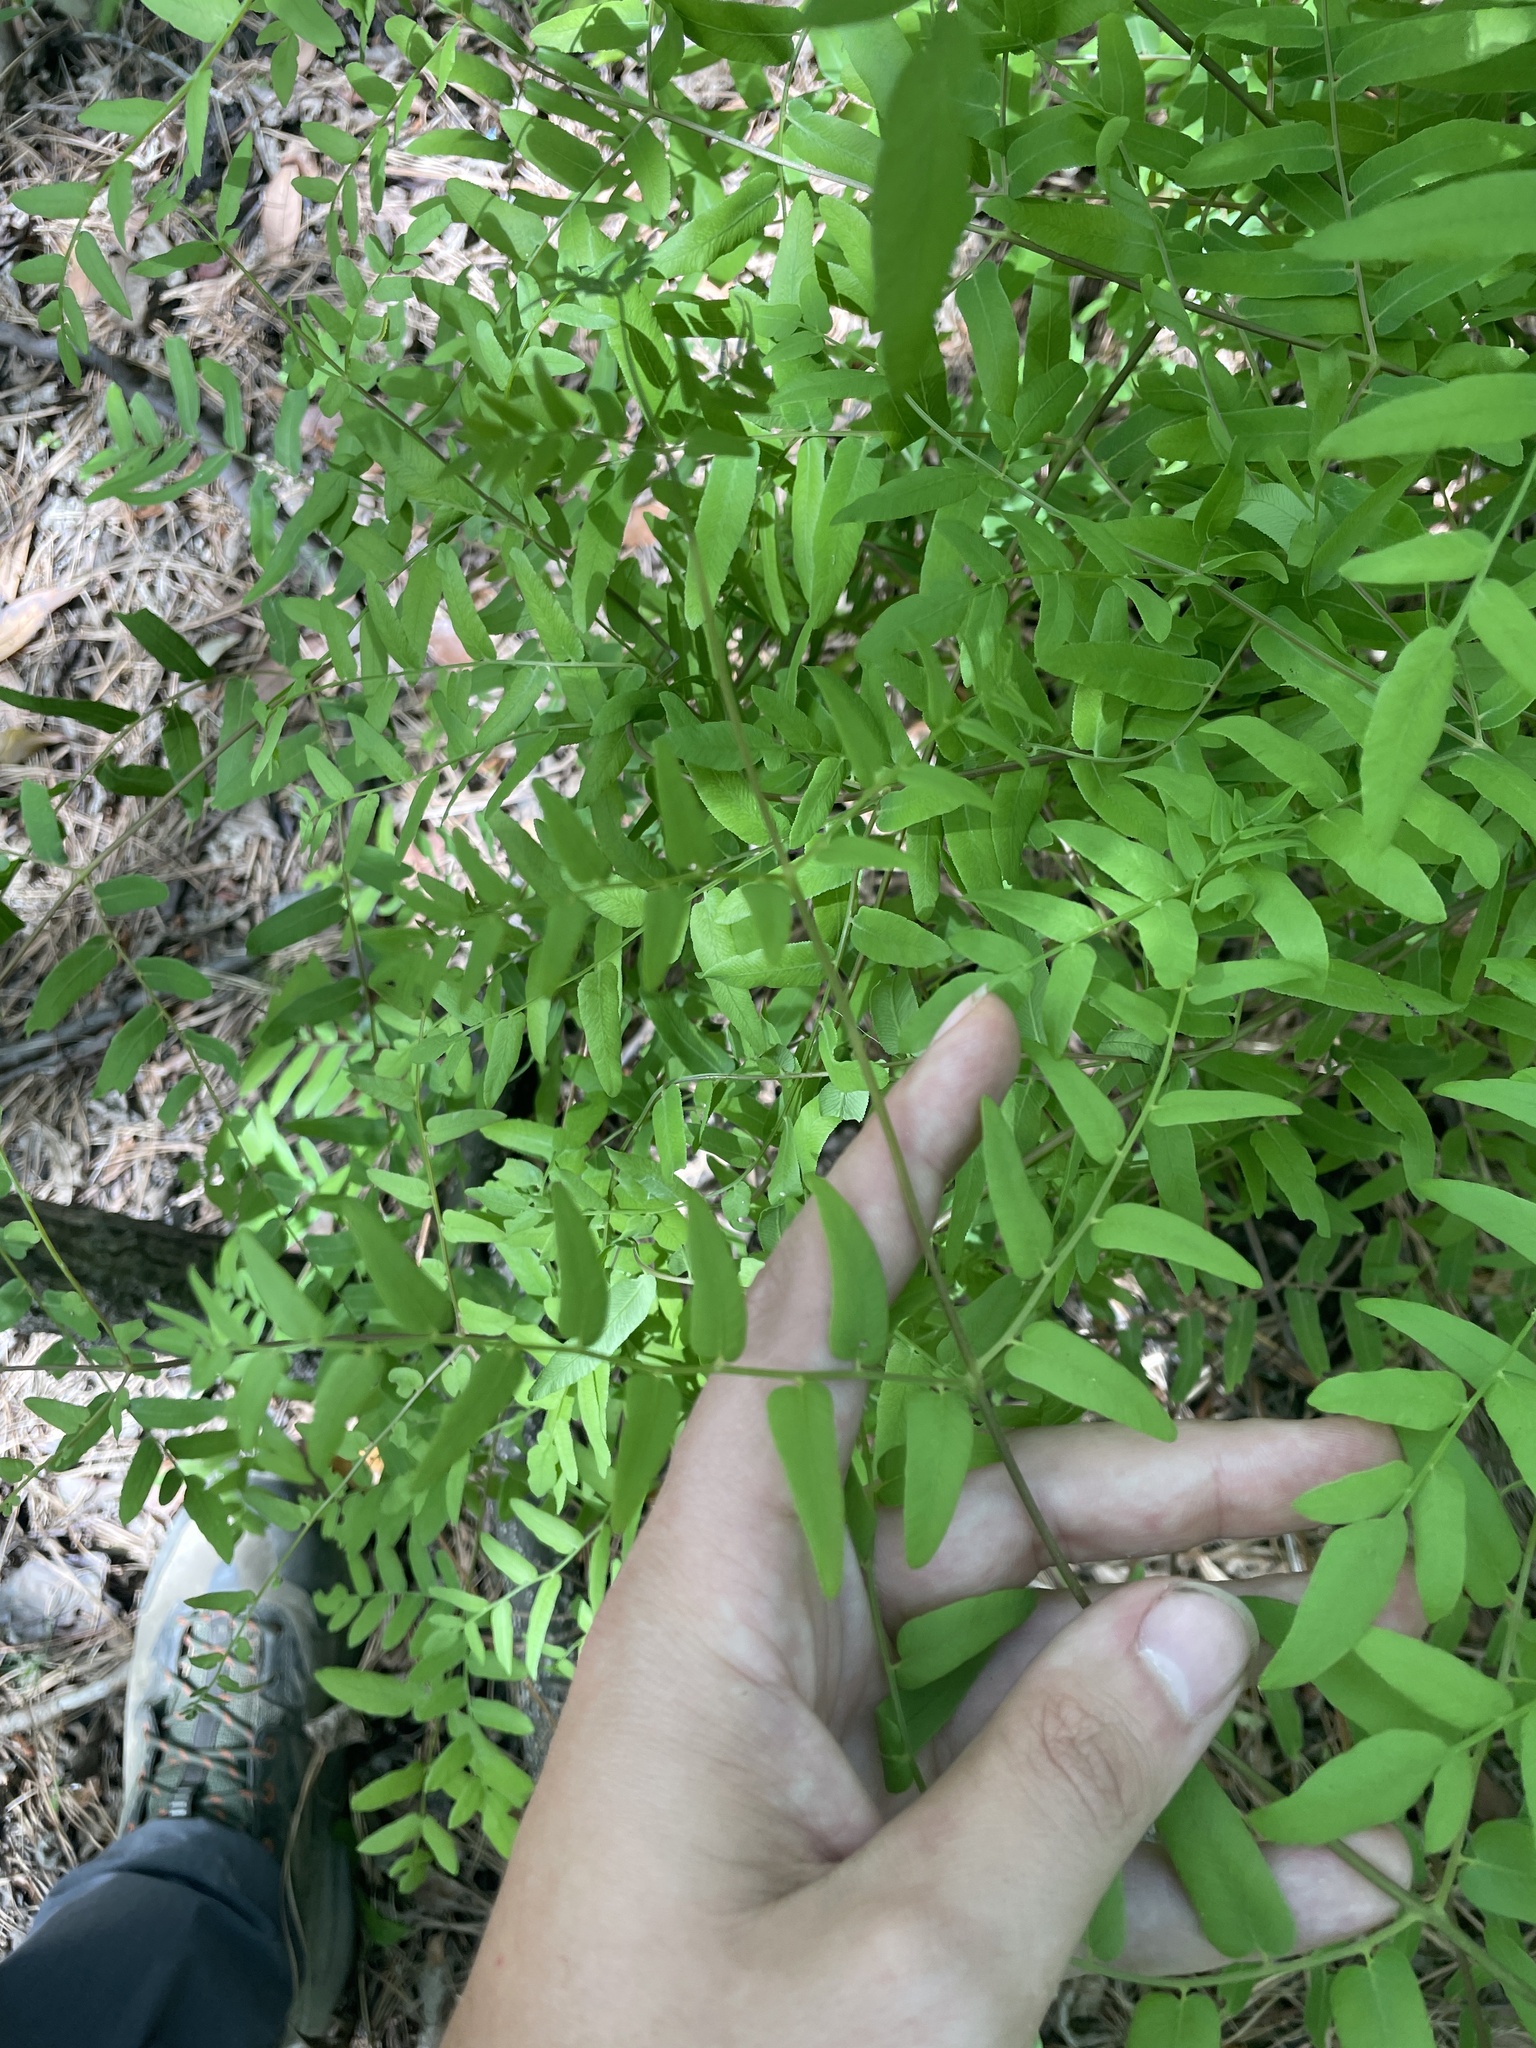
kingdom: Plantae
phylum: Tracheophyta
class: Polypodiopsida
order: Osmundales
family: Osmundaceae
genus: Osmunda
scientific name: Osmunda spectabilis
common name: American royal fern
